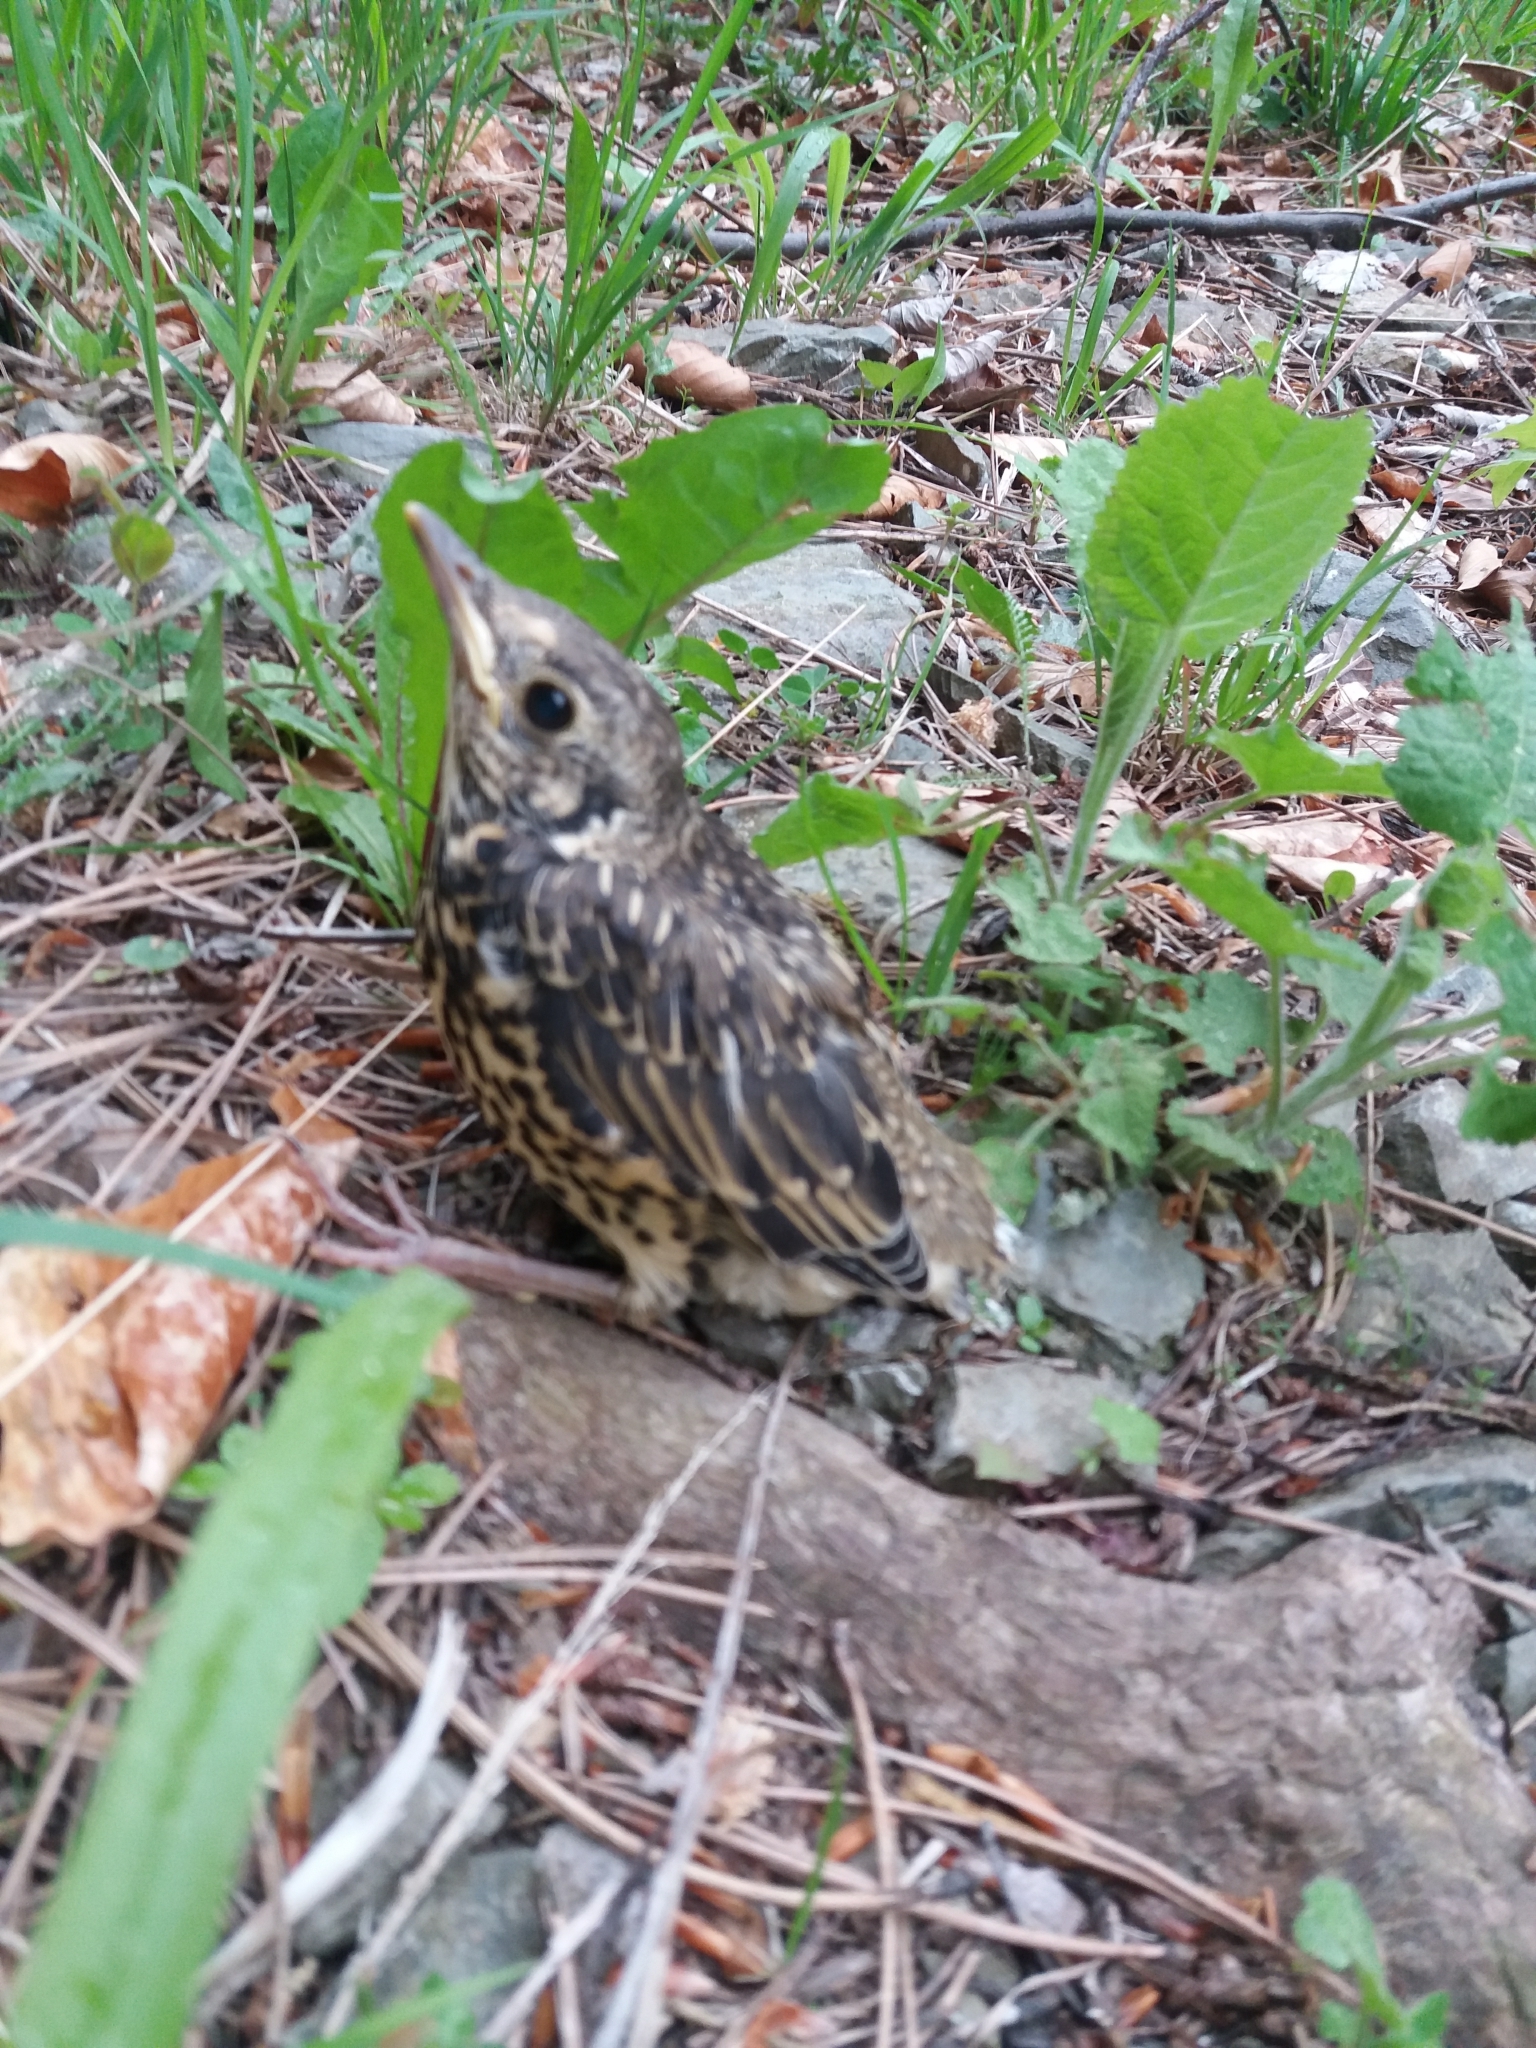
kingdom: Animalia
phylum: Chordata
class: Aves
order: Passeriformes
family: Turdidae
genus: Turdus
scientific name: Turdus philomelos
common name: Song thrush
